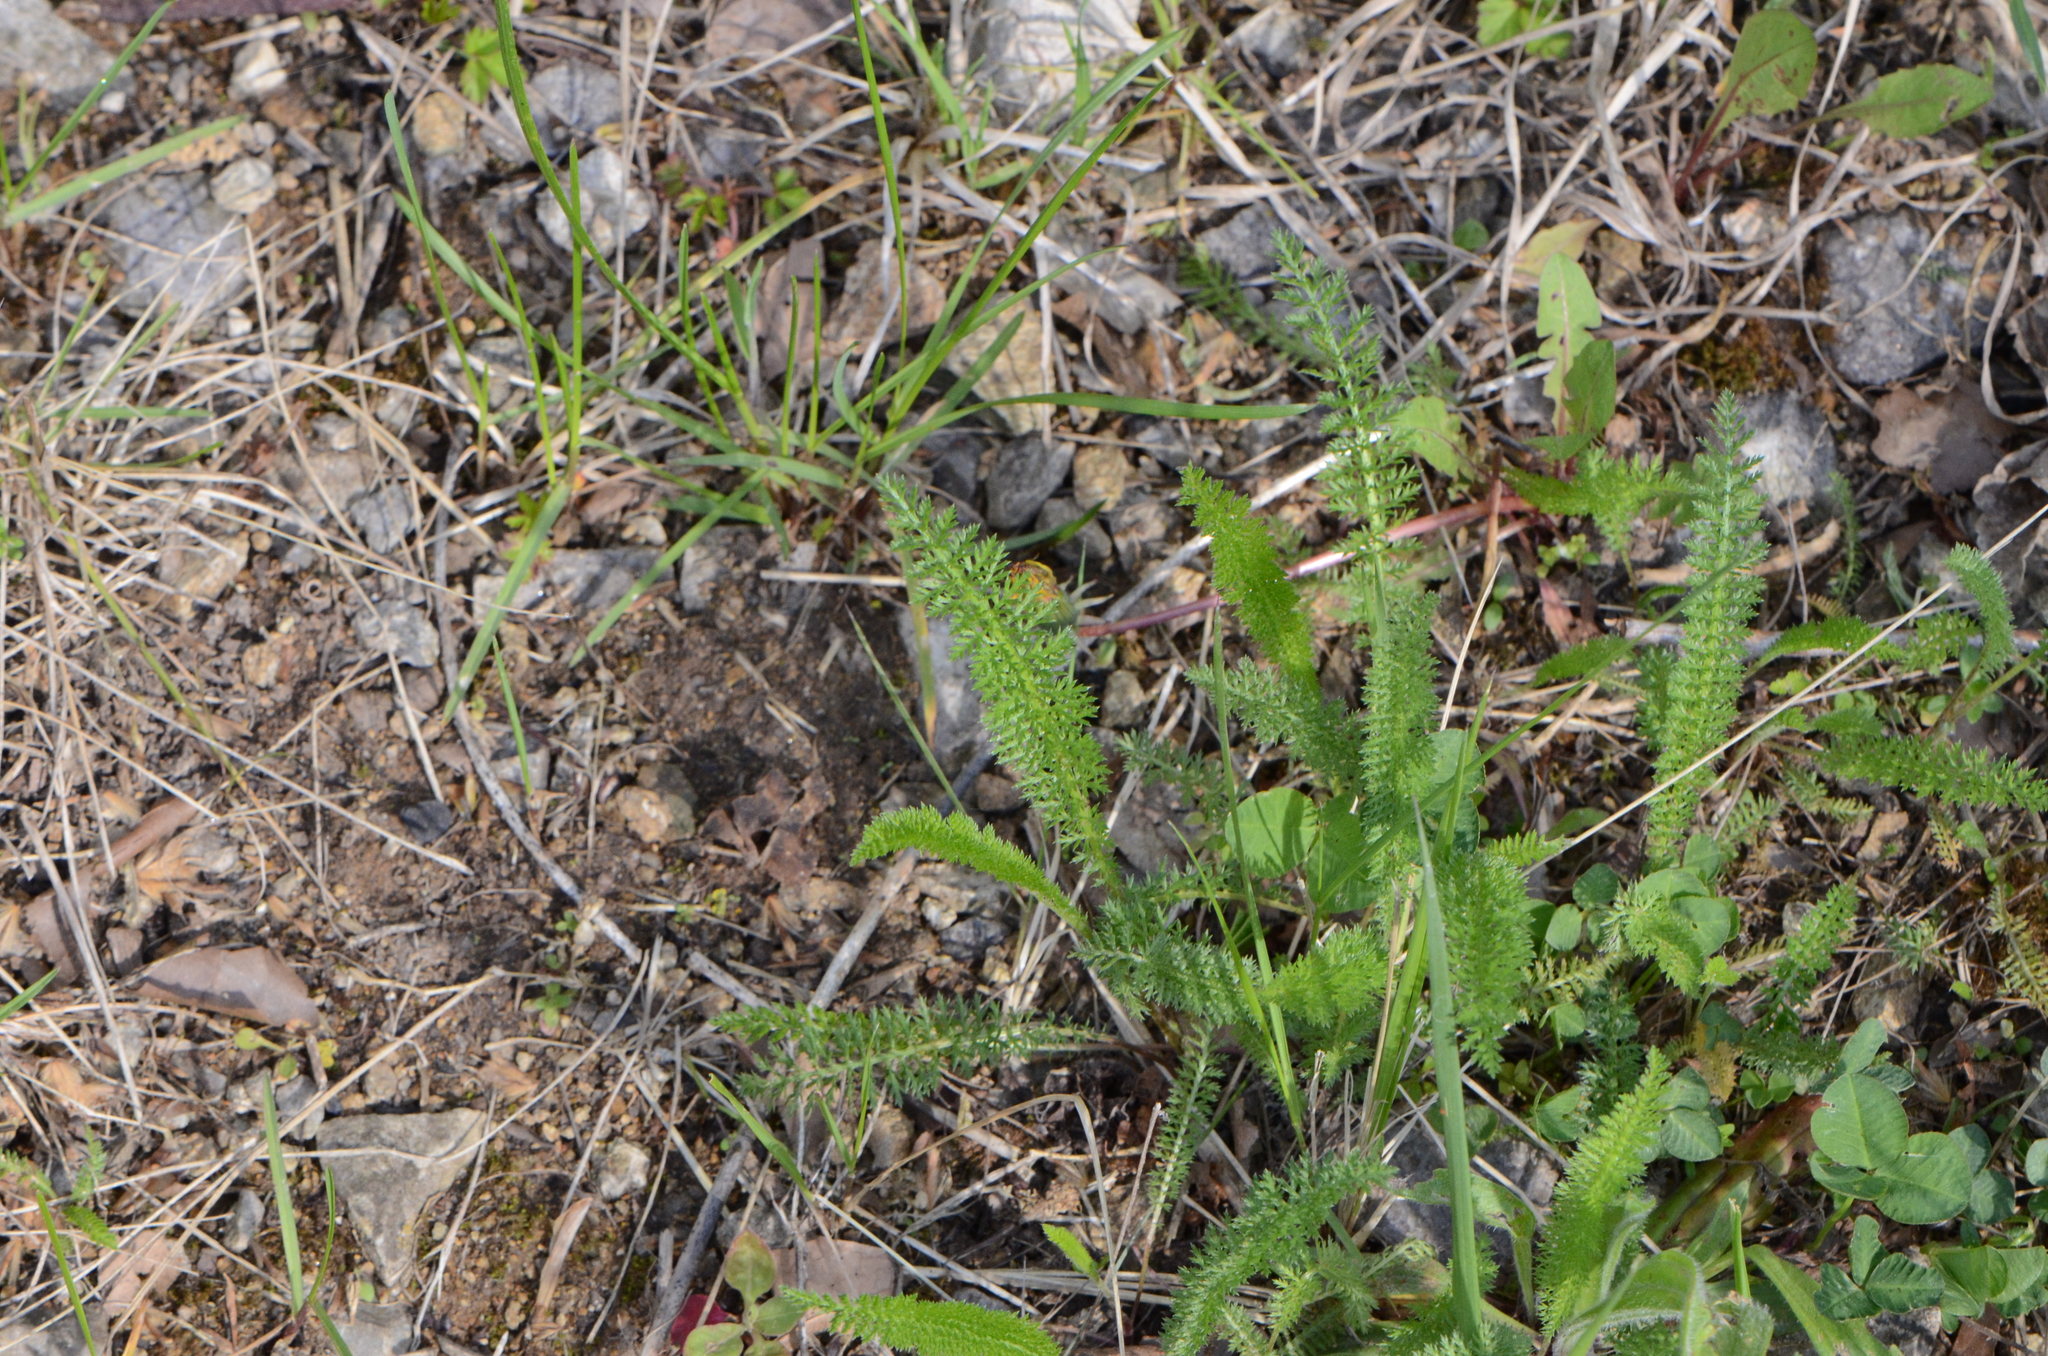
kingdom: Plantae
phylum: Tracheophyta
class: Magnoliopsida
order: Asterales
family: Asteraceae
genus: Achillea
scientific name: Achillea millefolium
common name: Yarrow
